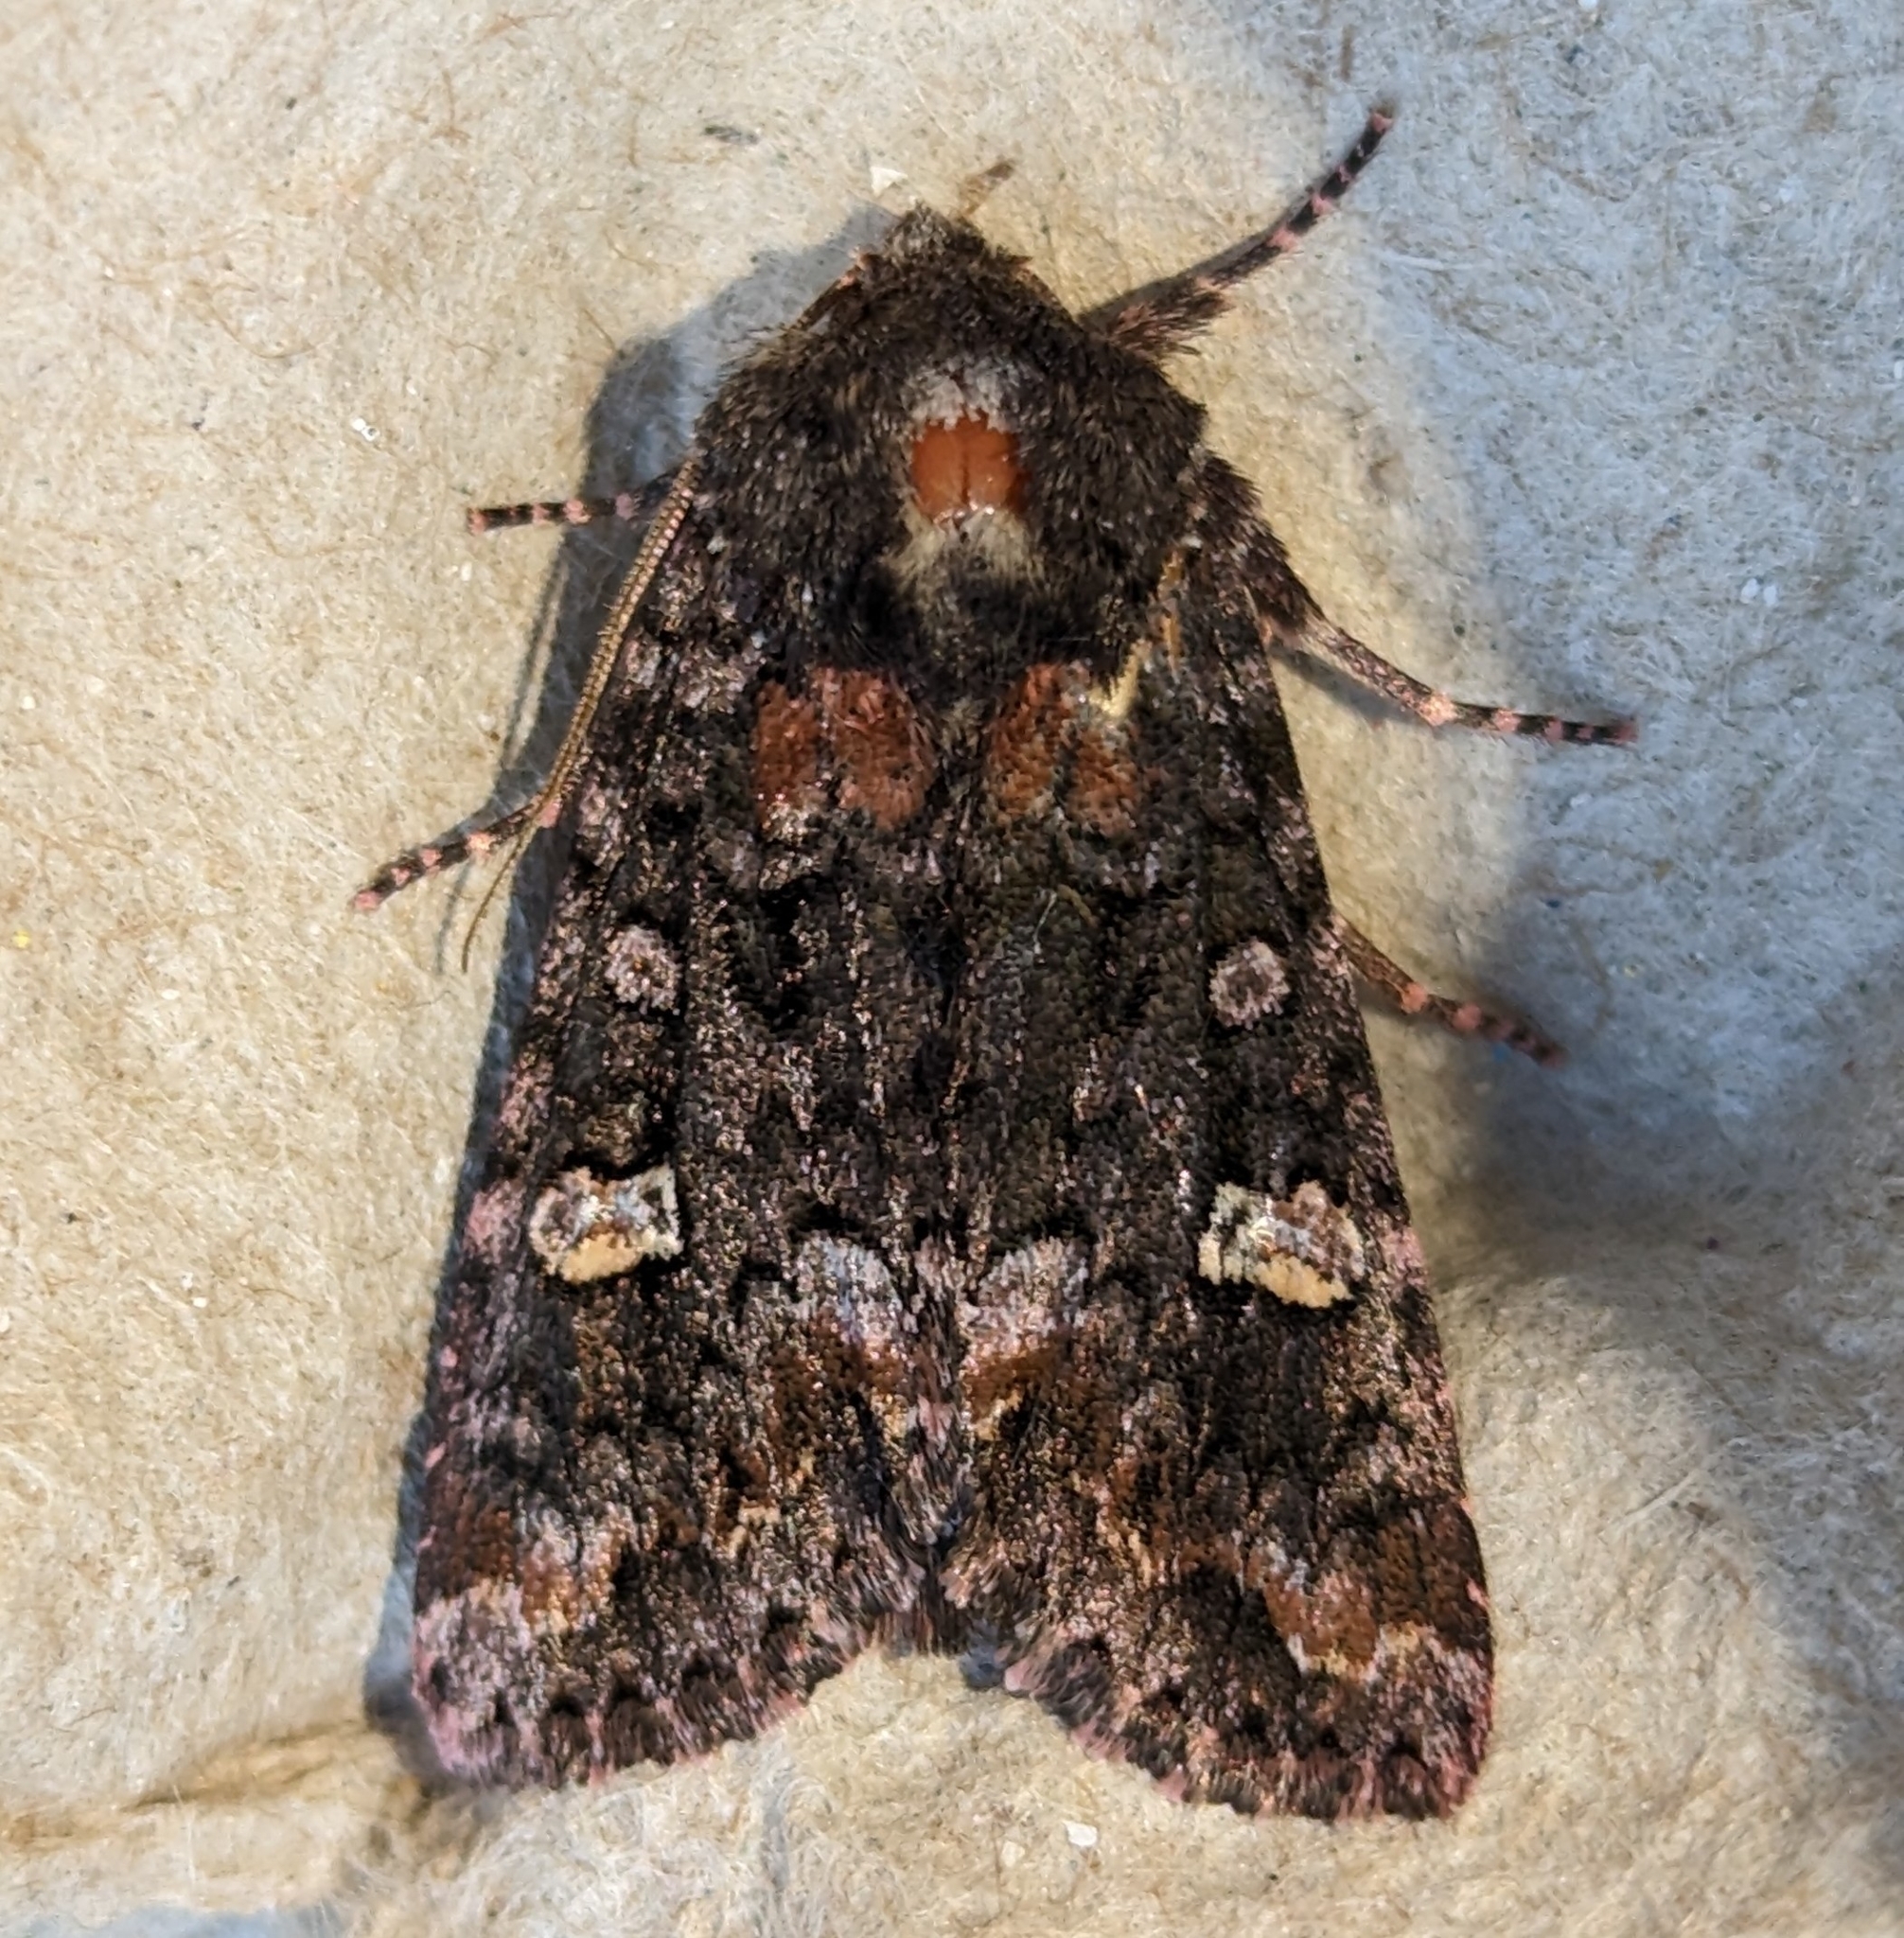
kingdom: Animalia
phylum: Arthropoda
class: Insecta
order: Lepidoptera
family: Noctuidae
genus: Spiramater
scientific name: Spiramater lutra
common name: Otter spiramater moth
